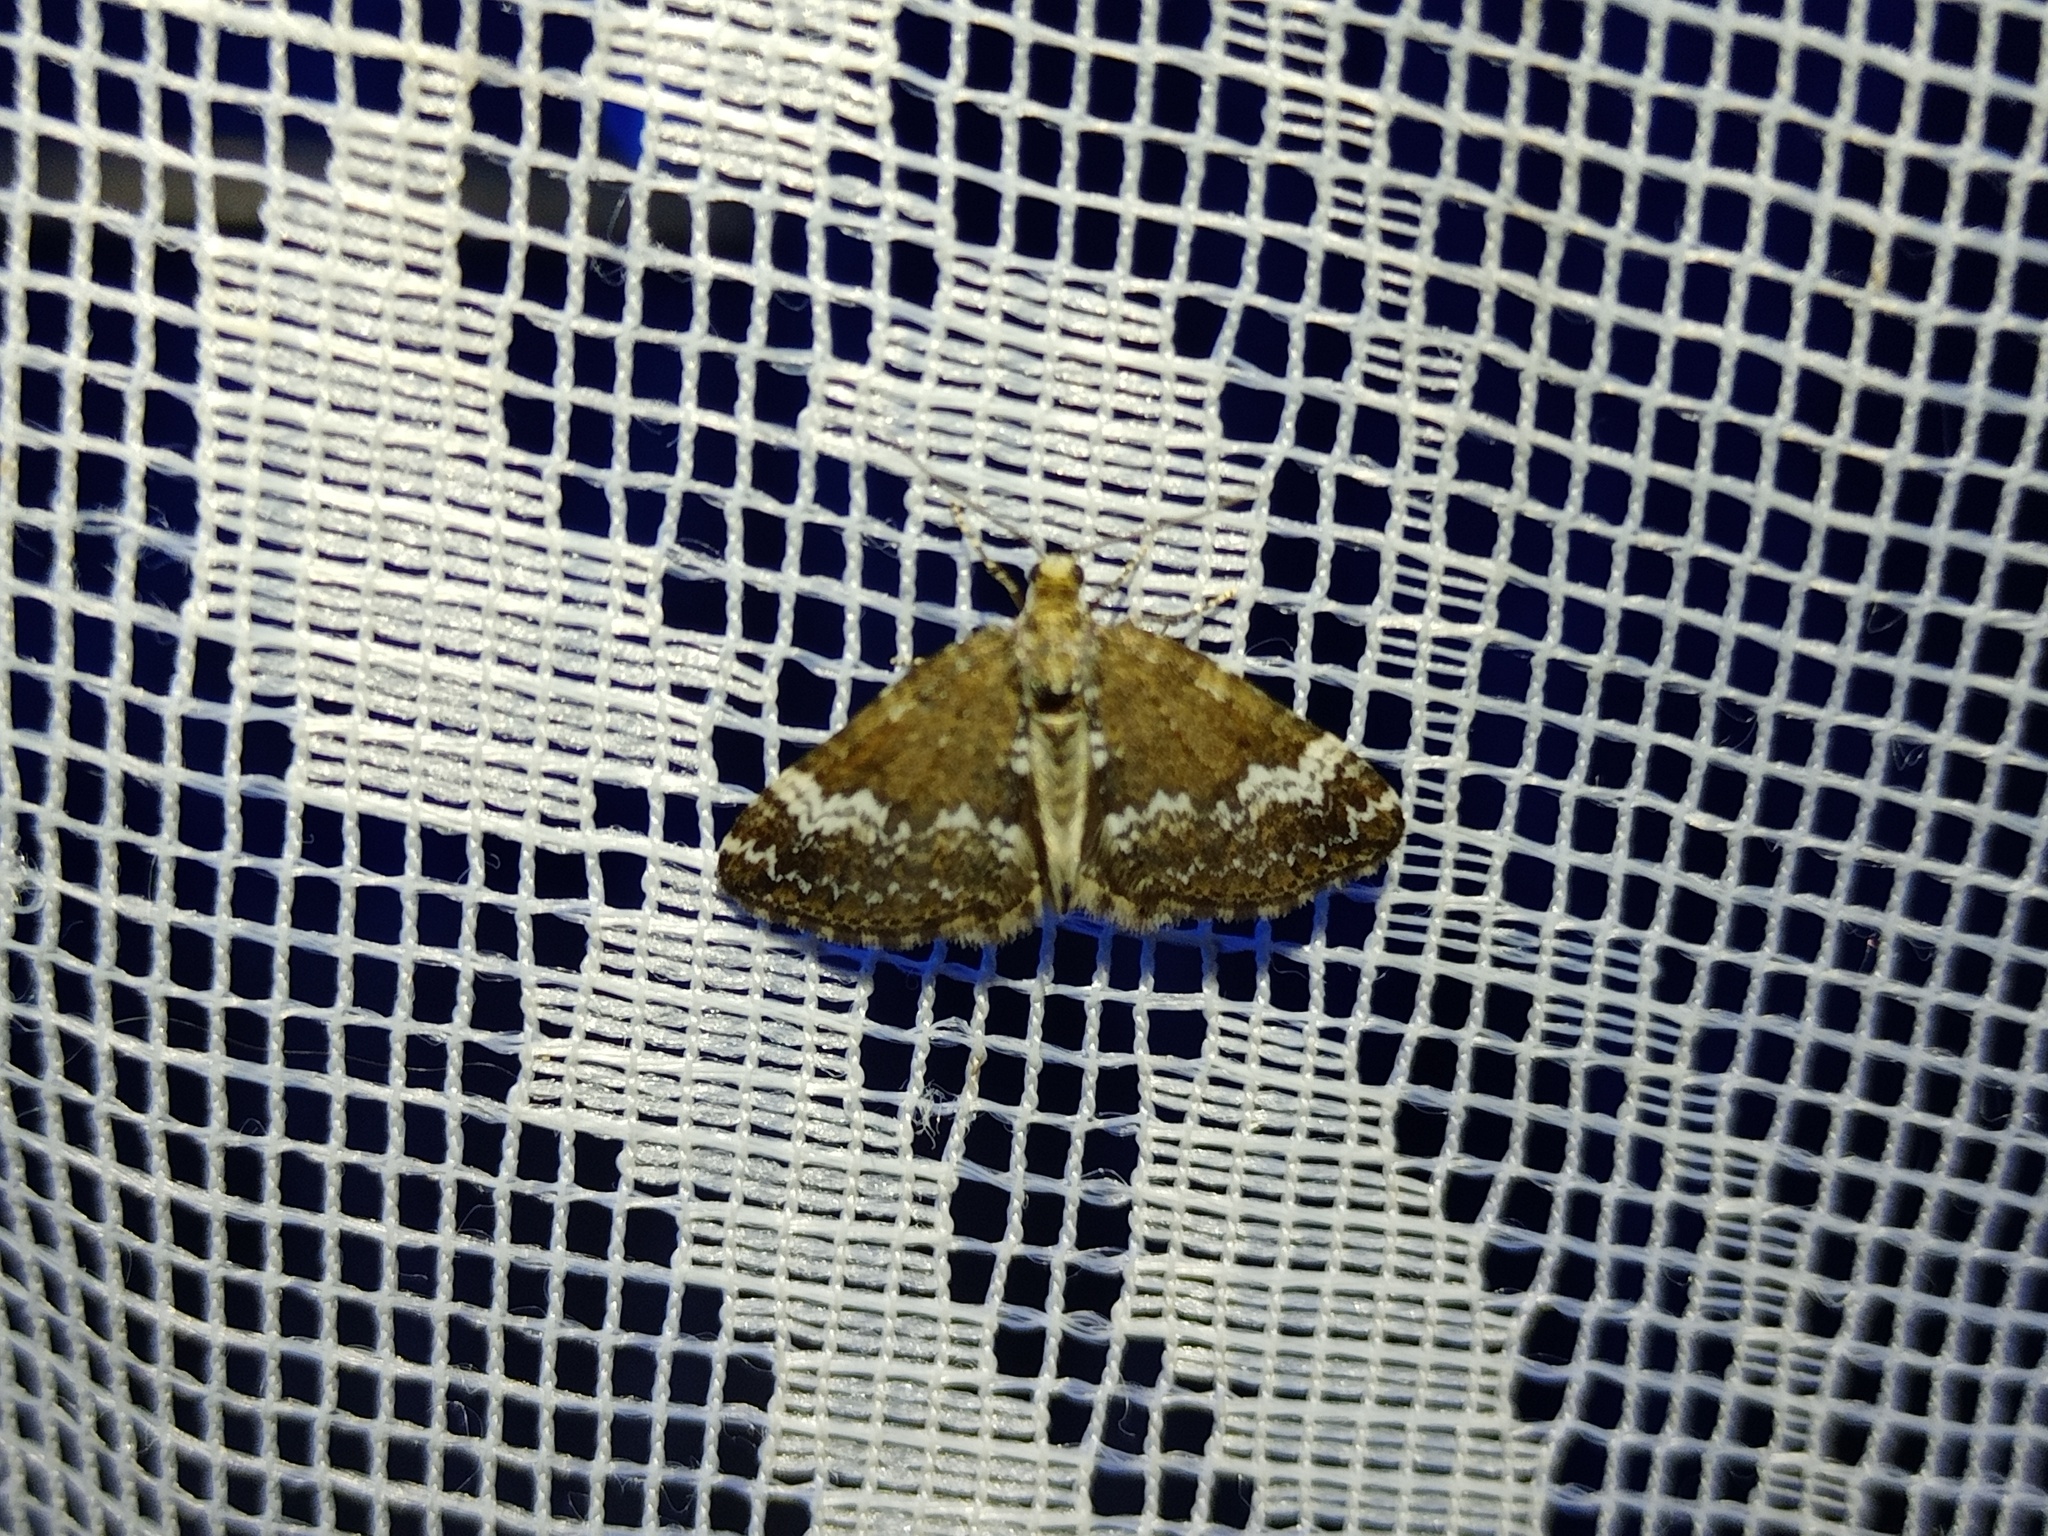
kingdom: Animalia
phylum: Arthropoda
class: Insecta
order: Lepidoptera
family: Geometridae
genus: Perizoma
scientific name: Perizoma alchemillata
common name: Small rivulet
